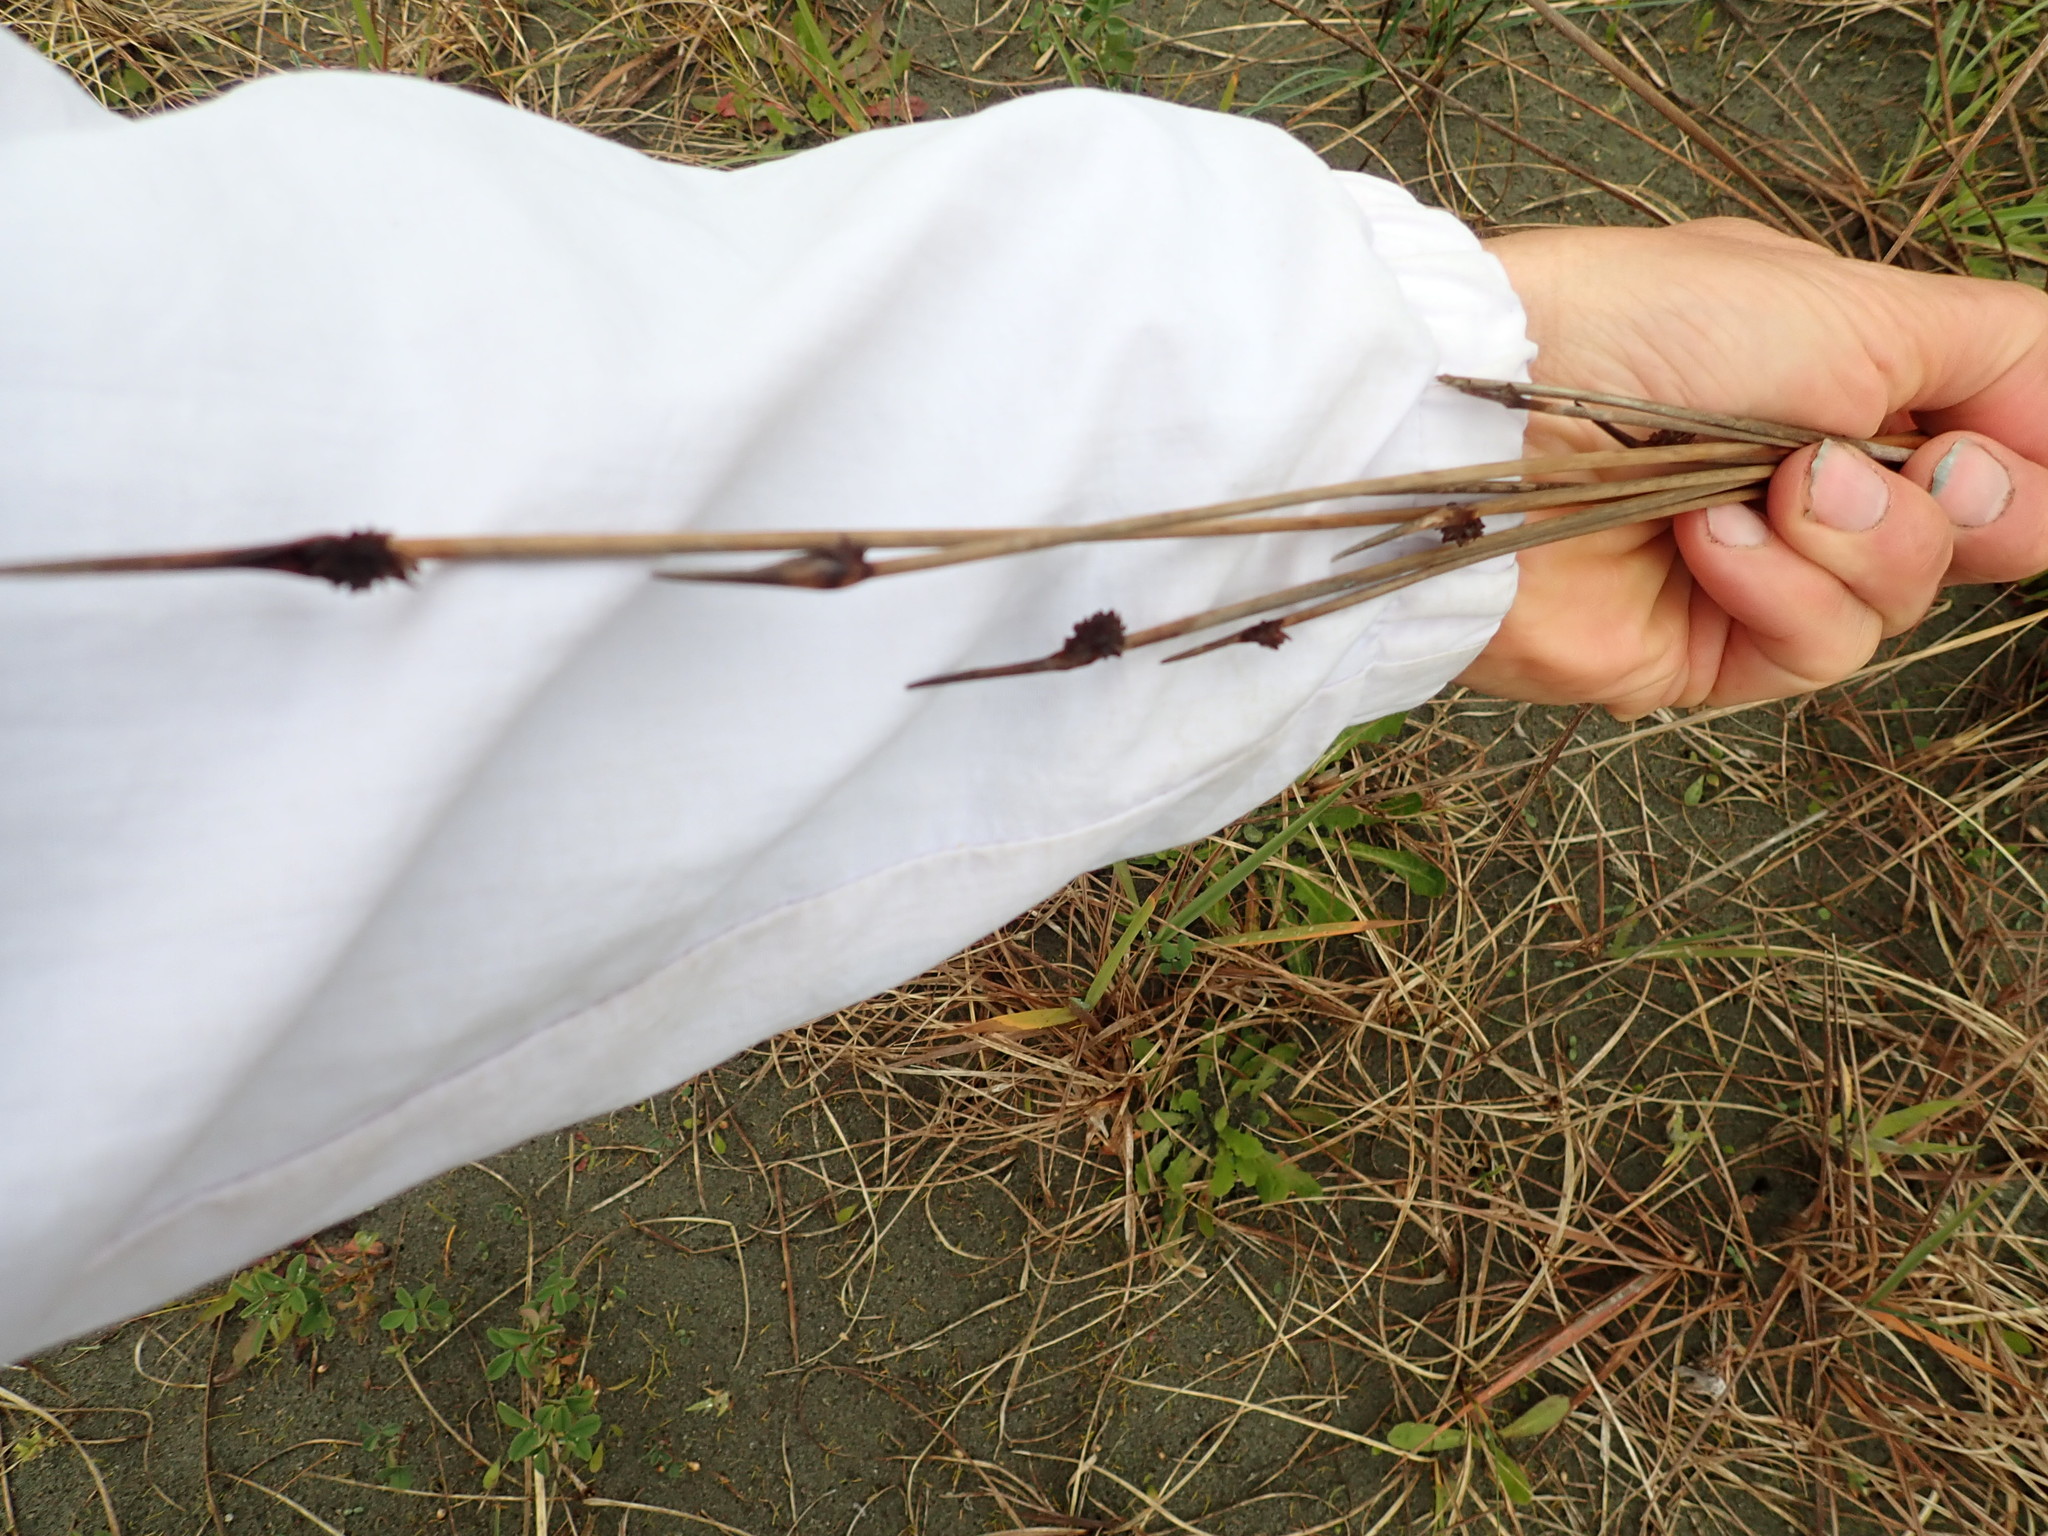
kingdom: Plantae
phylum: Tracheophyta
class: Liliopsida
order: Poales
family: Cyperaceae
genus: Ficinia
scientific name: Ficinia nodosa
